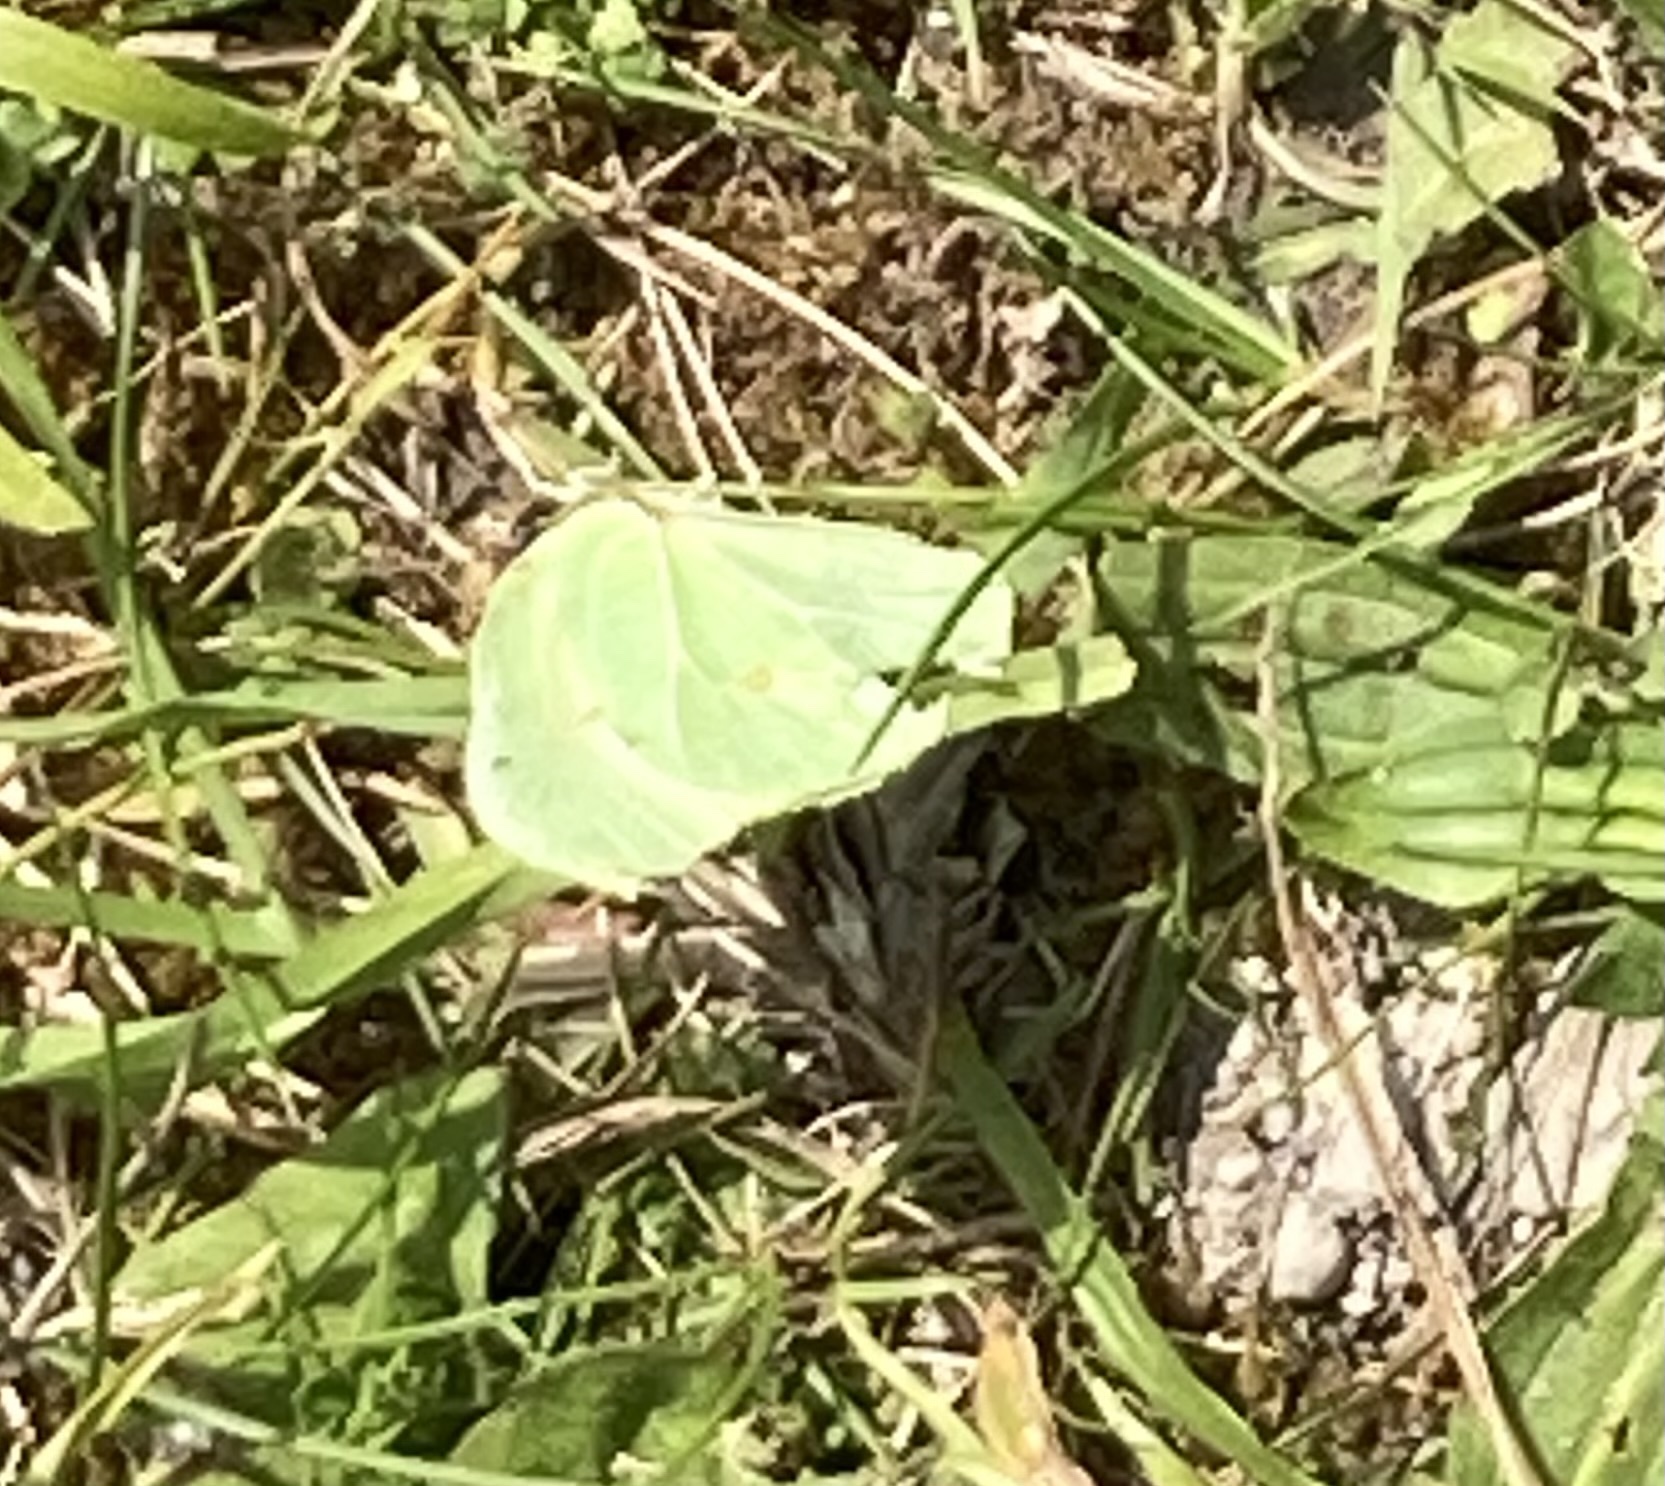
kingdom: Animalia
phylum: Arthropoda
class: Insecta
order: Lepidoptera
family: Pieridae
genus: Gonepteryx
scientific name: Gonepteryx rhamni
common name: Brimstone
